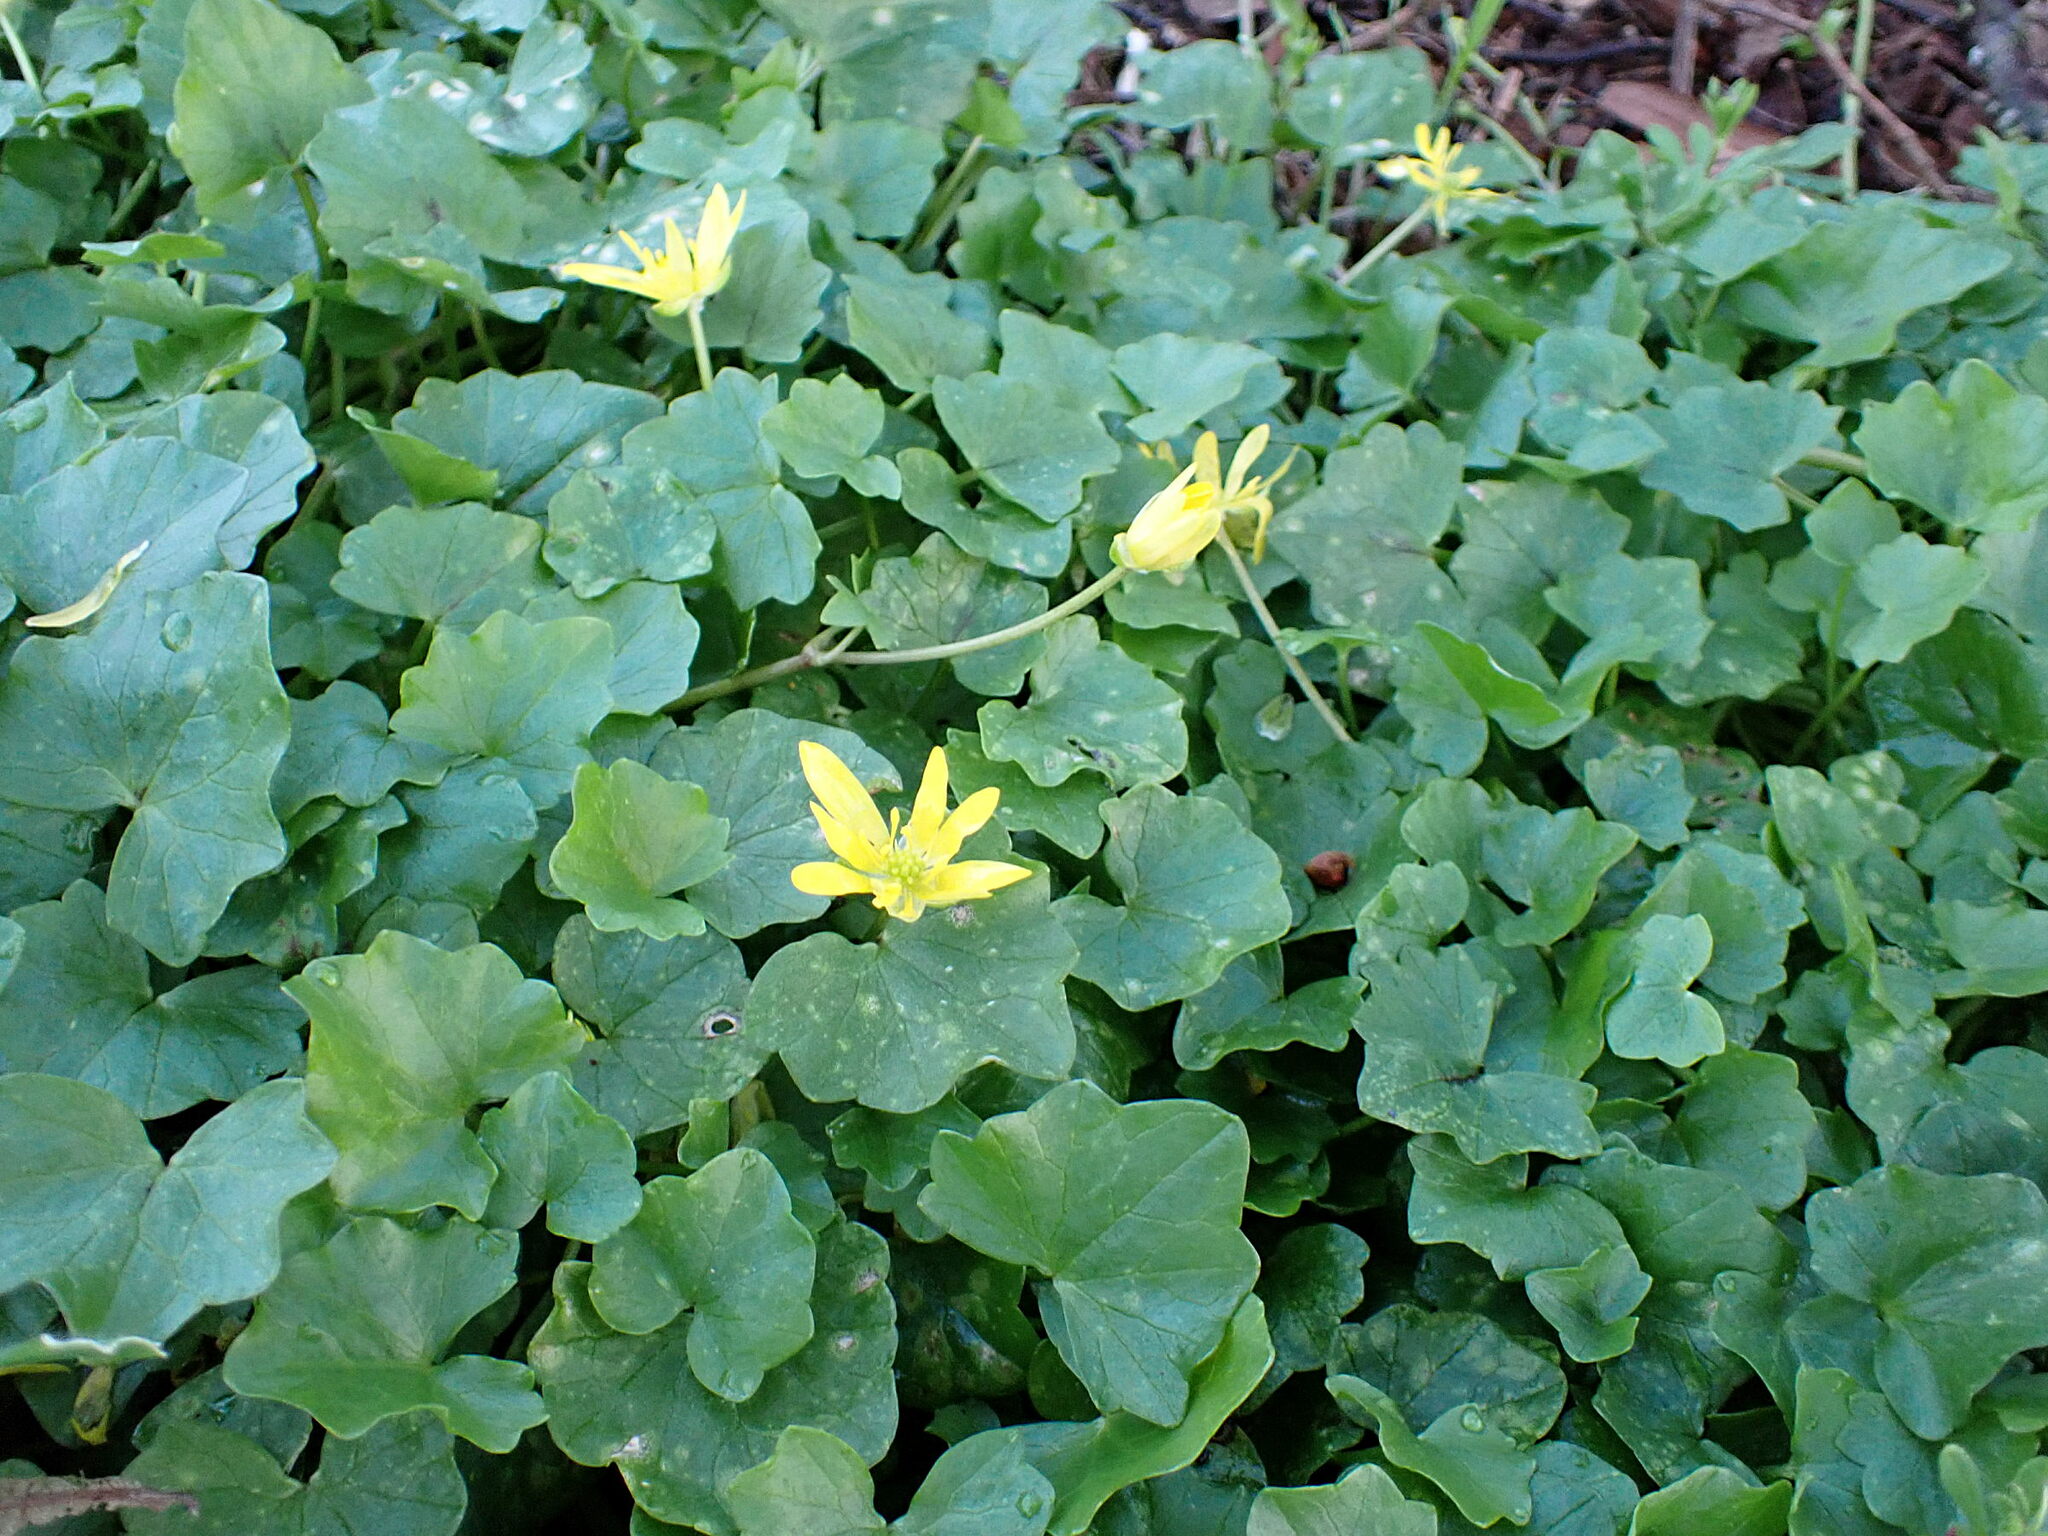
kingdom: Plantae
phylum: Tracheophyta
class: Magnoliopsida
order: Ranunculales
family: Ranunculaceae
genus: Ficaria
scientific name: Ficaria verna
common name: Lesser celandine
